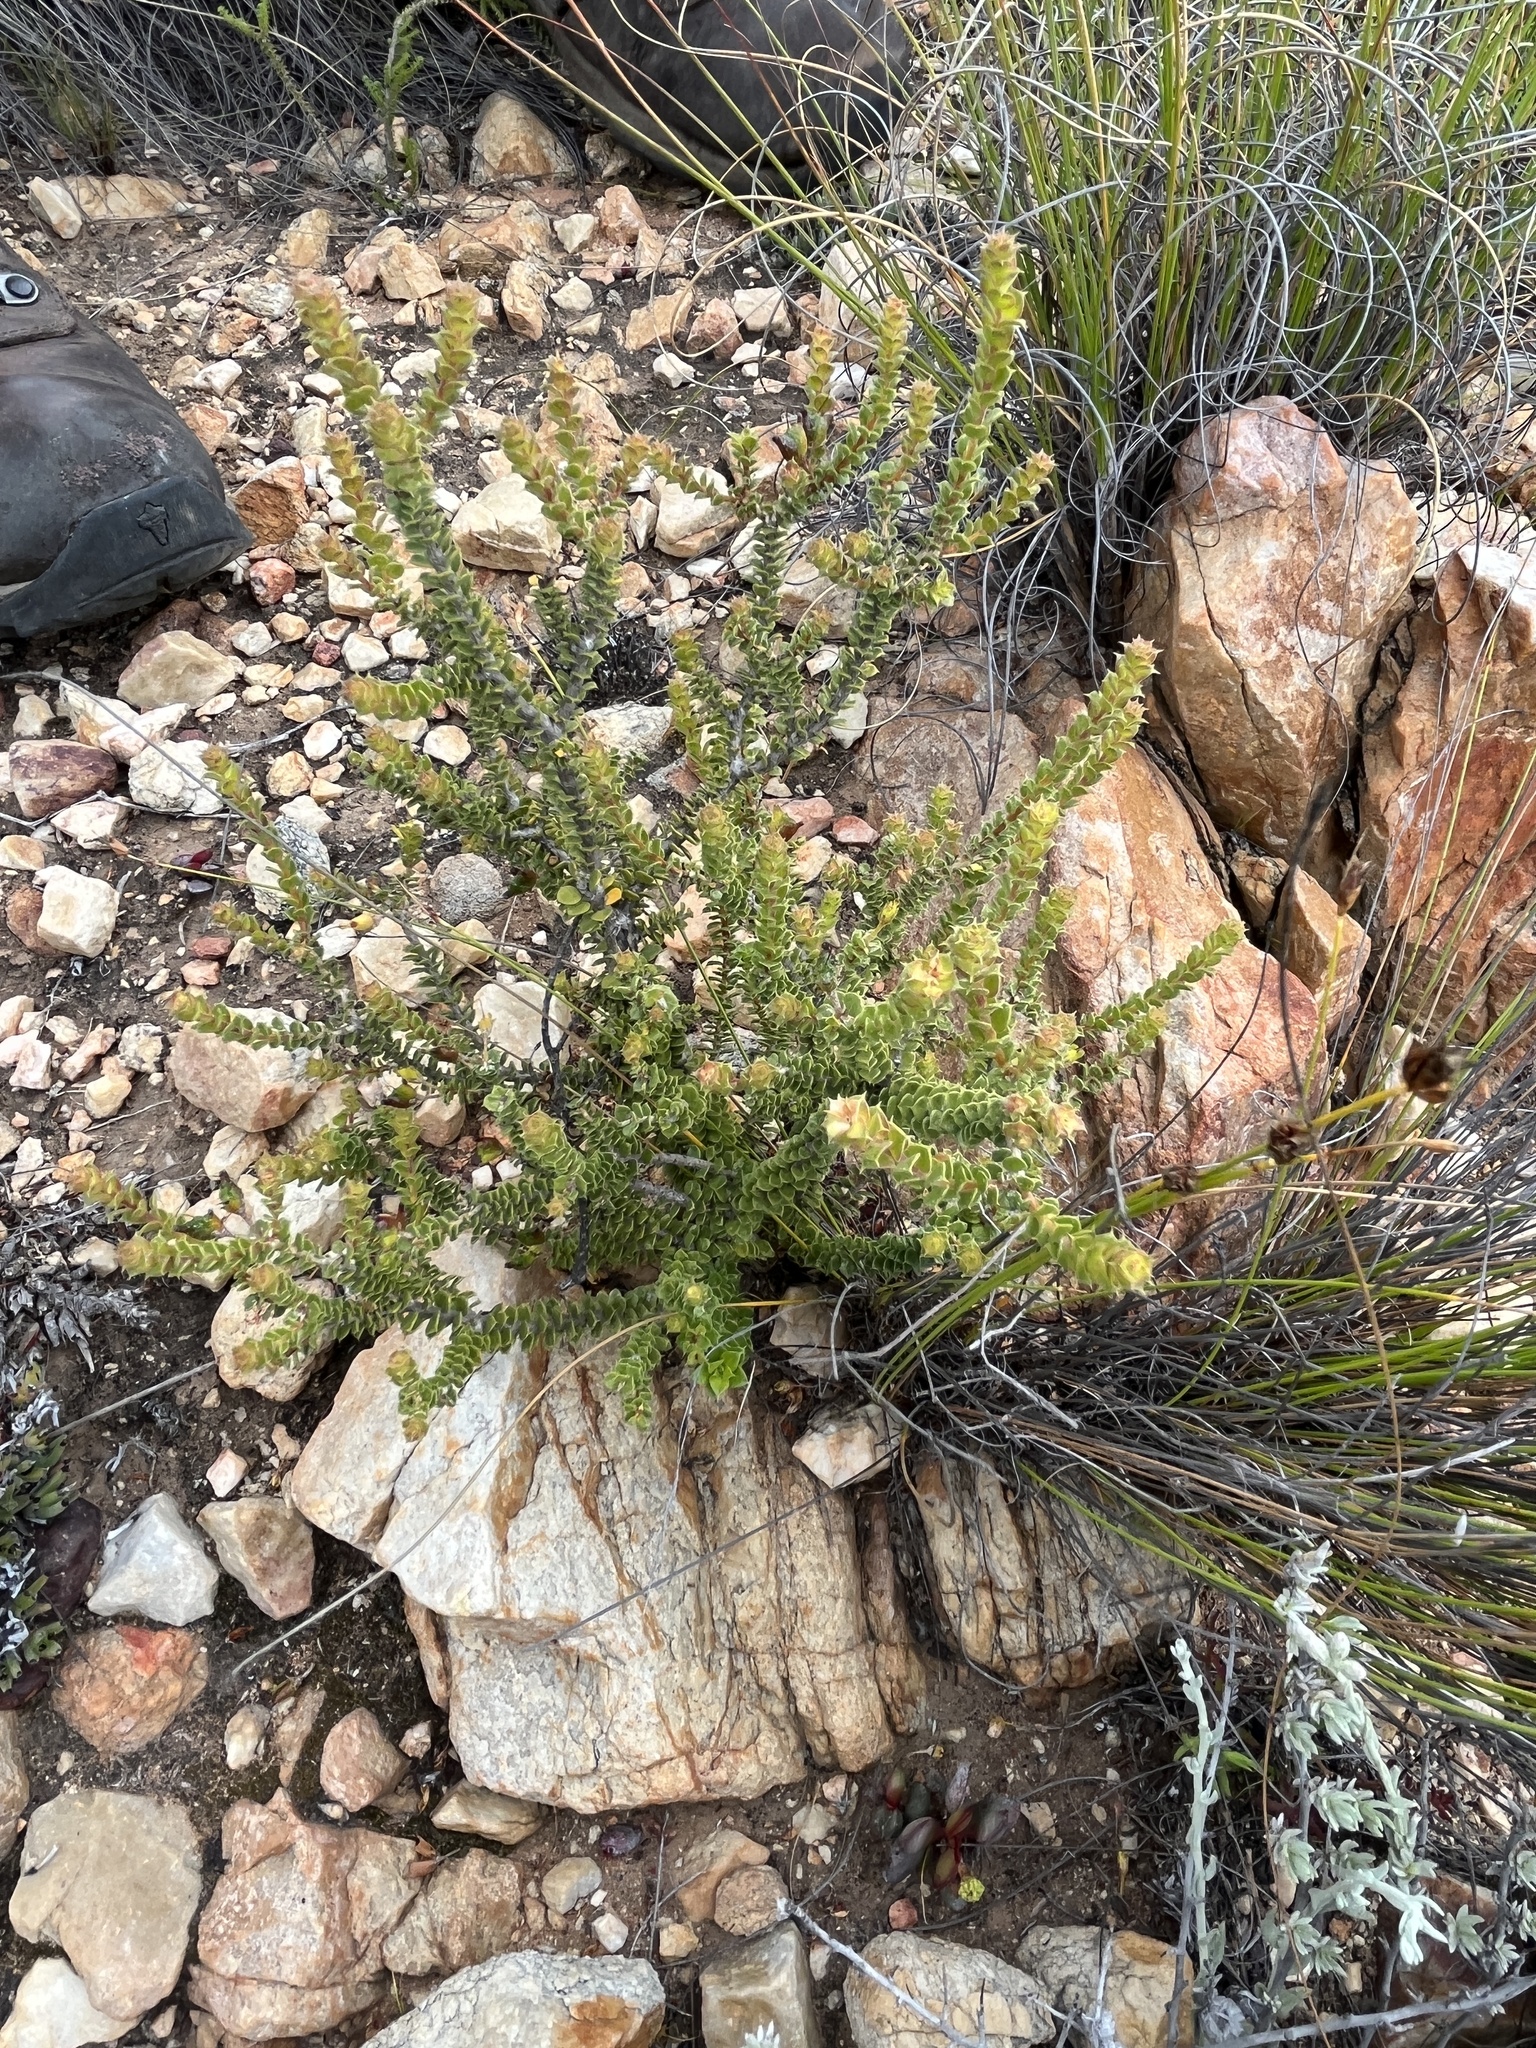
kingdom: Plantae
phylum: Tracheophyta
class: Magnoliopsida
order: Sapindales
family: Rutaceae
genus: Agathosma
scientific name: Agathosma spinosa
